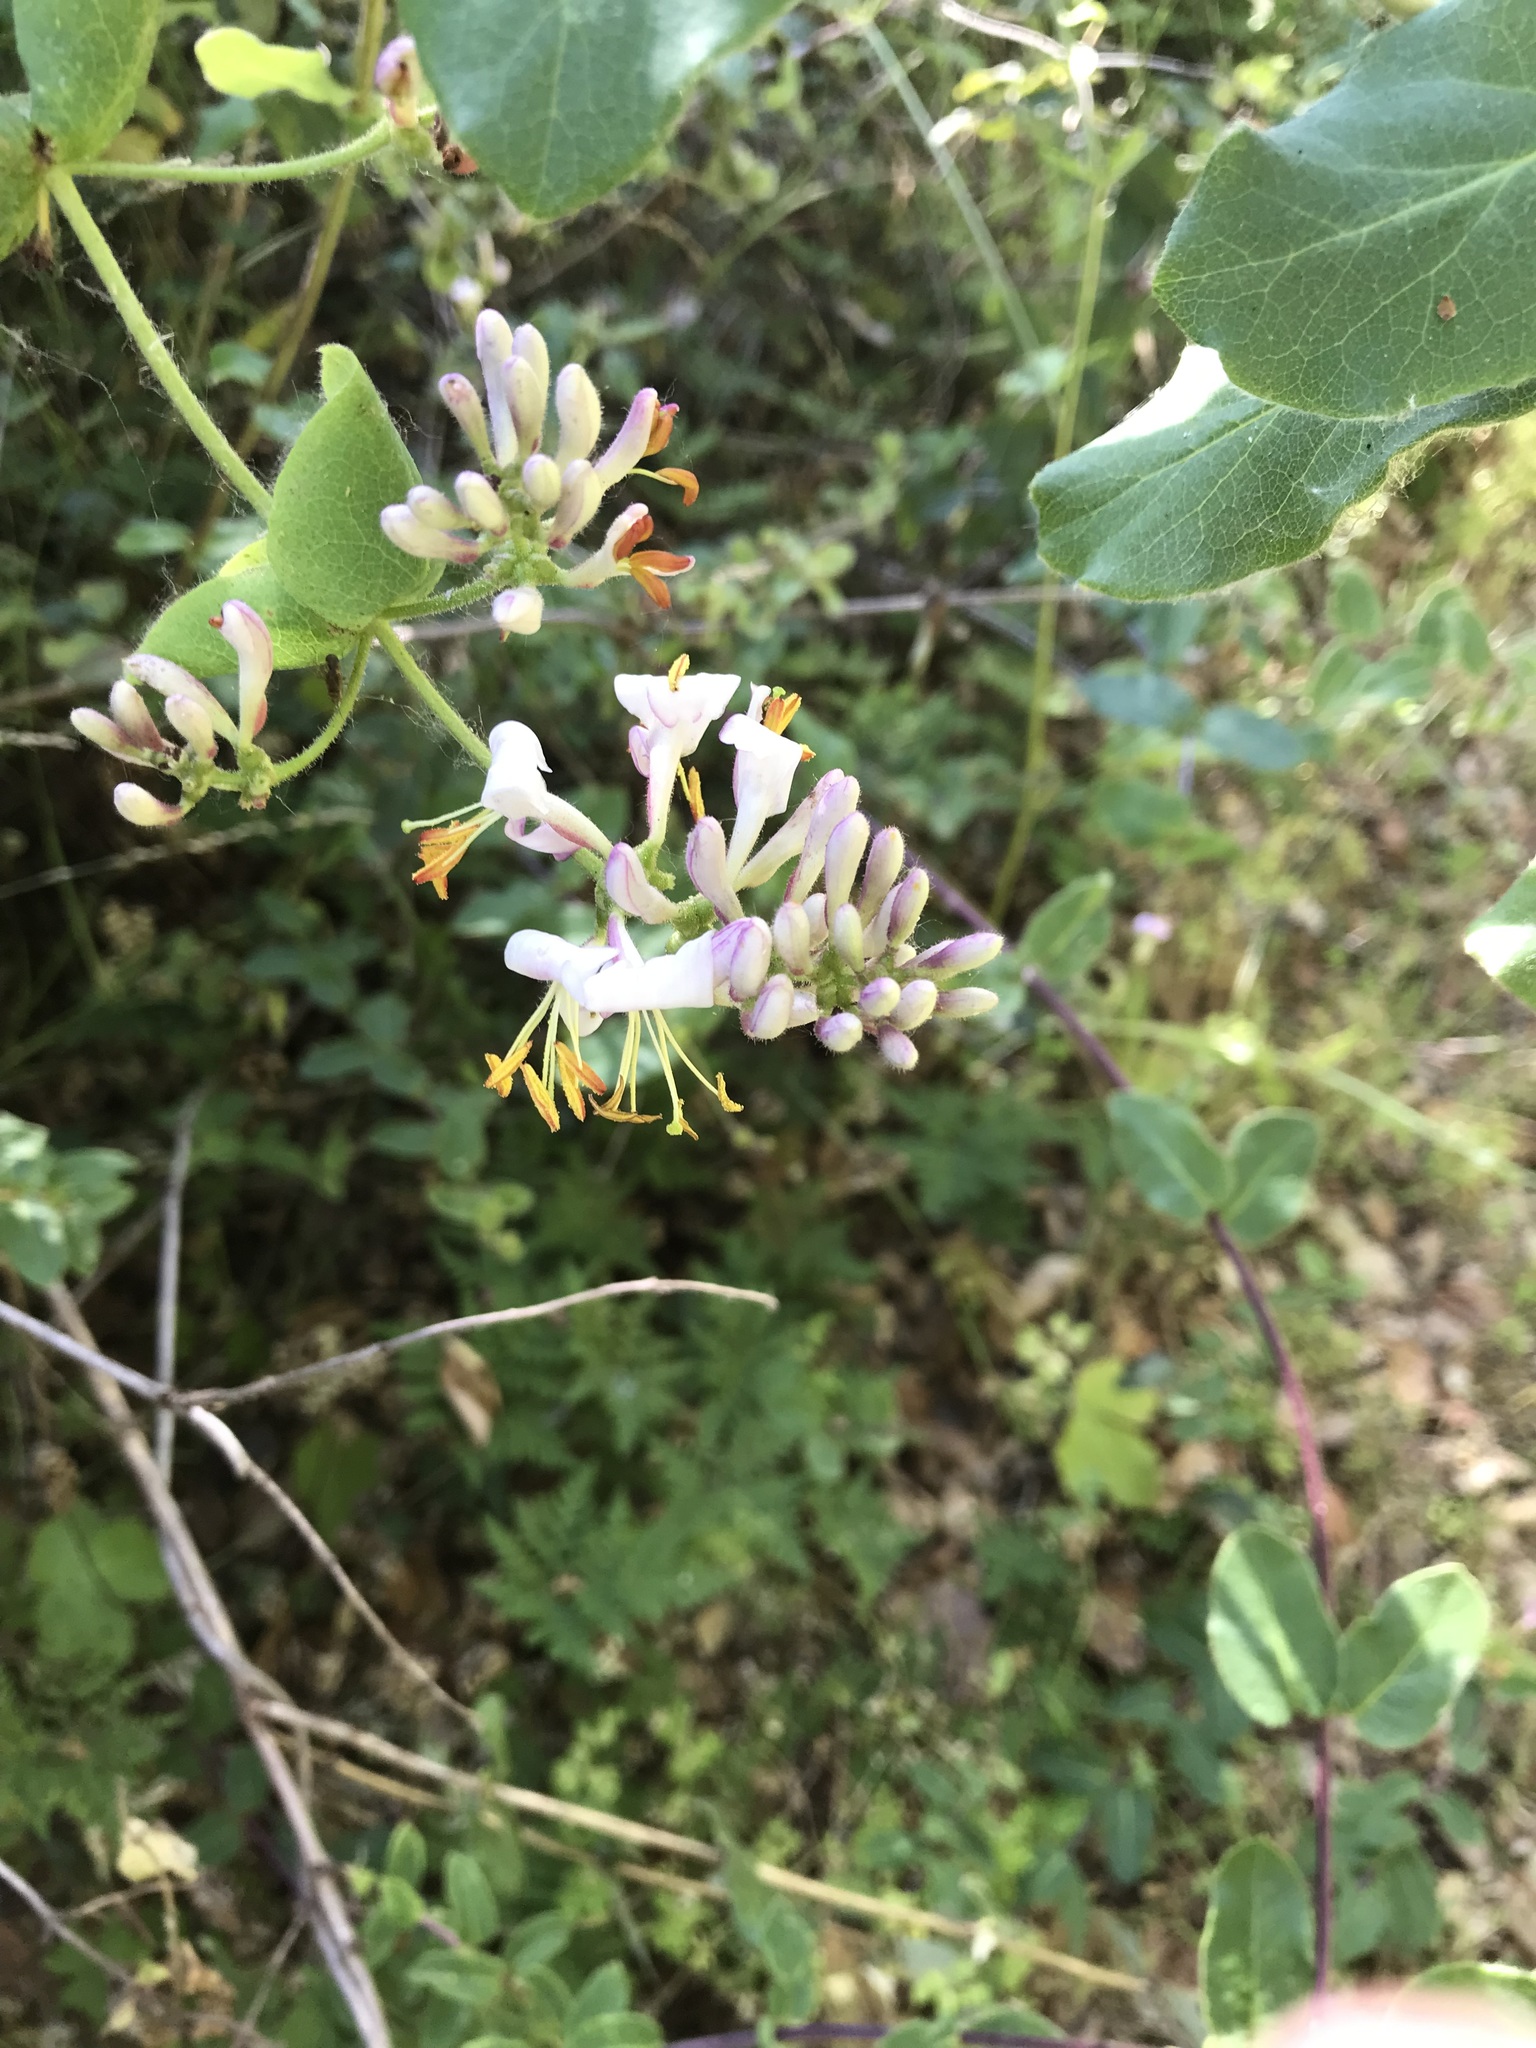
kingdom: Plantae
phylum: Tracheophyta
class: Magnoliopsida
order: Dipsacales
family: Caprifoliaceae
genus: Lonicera
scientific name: Lonicera hispidula
